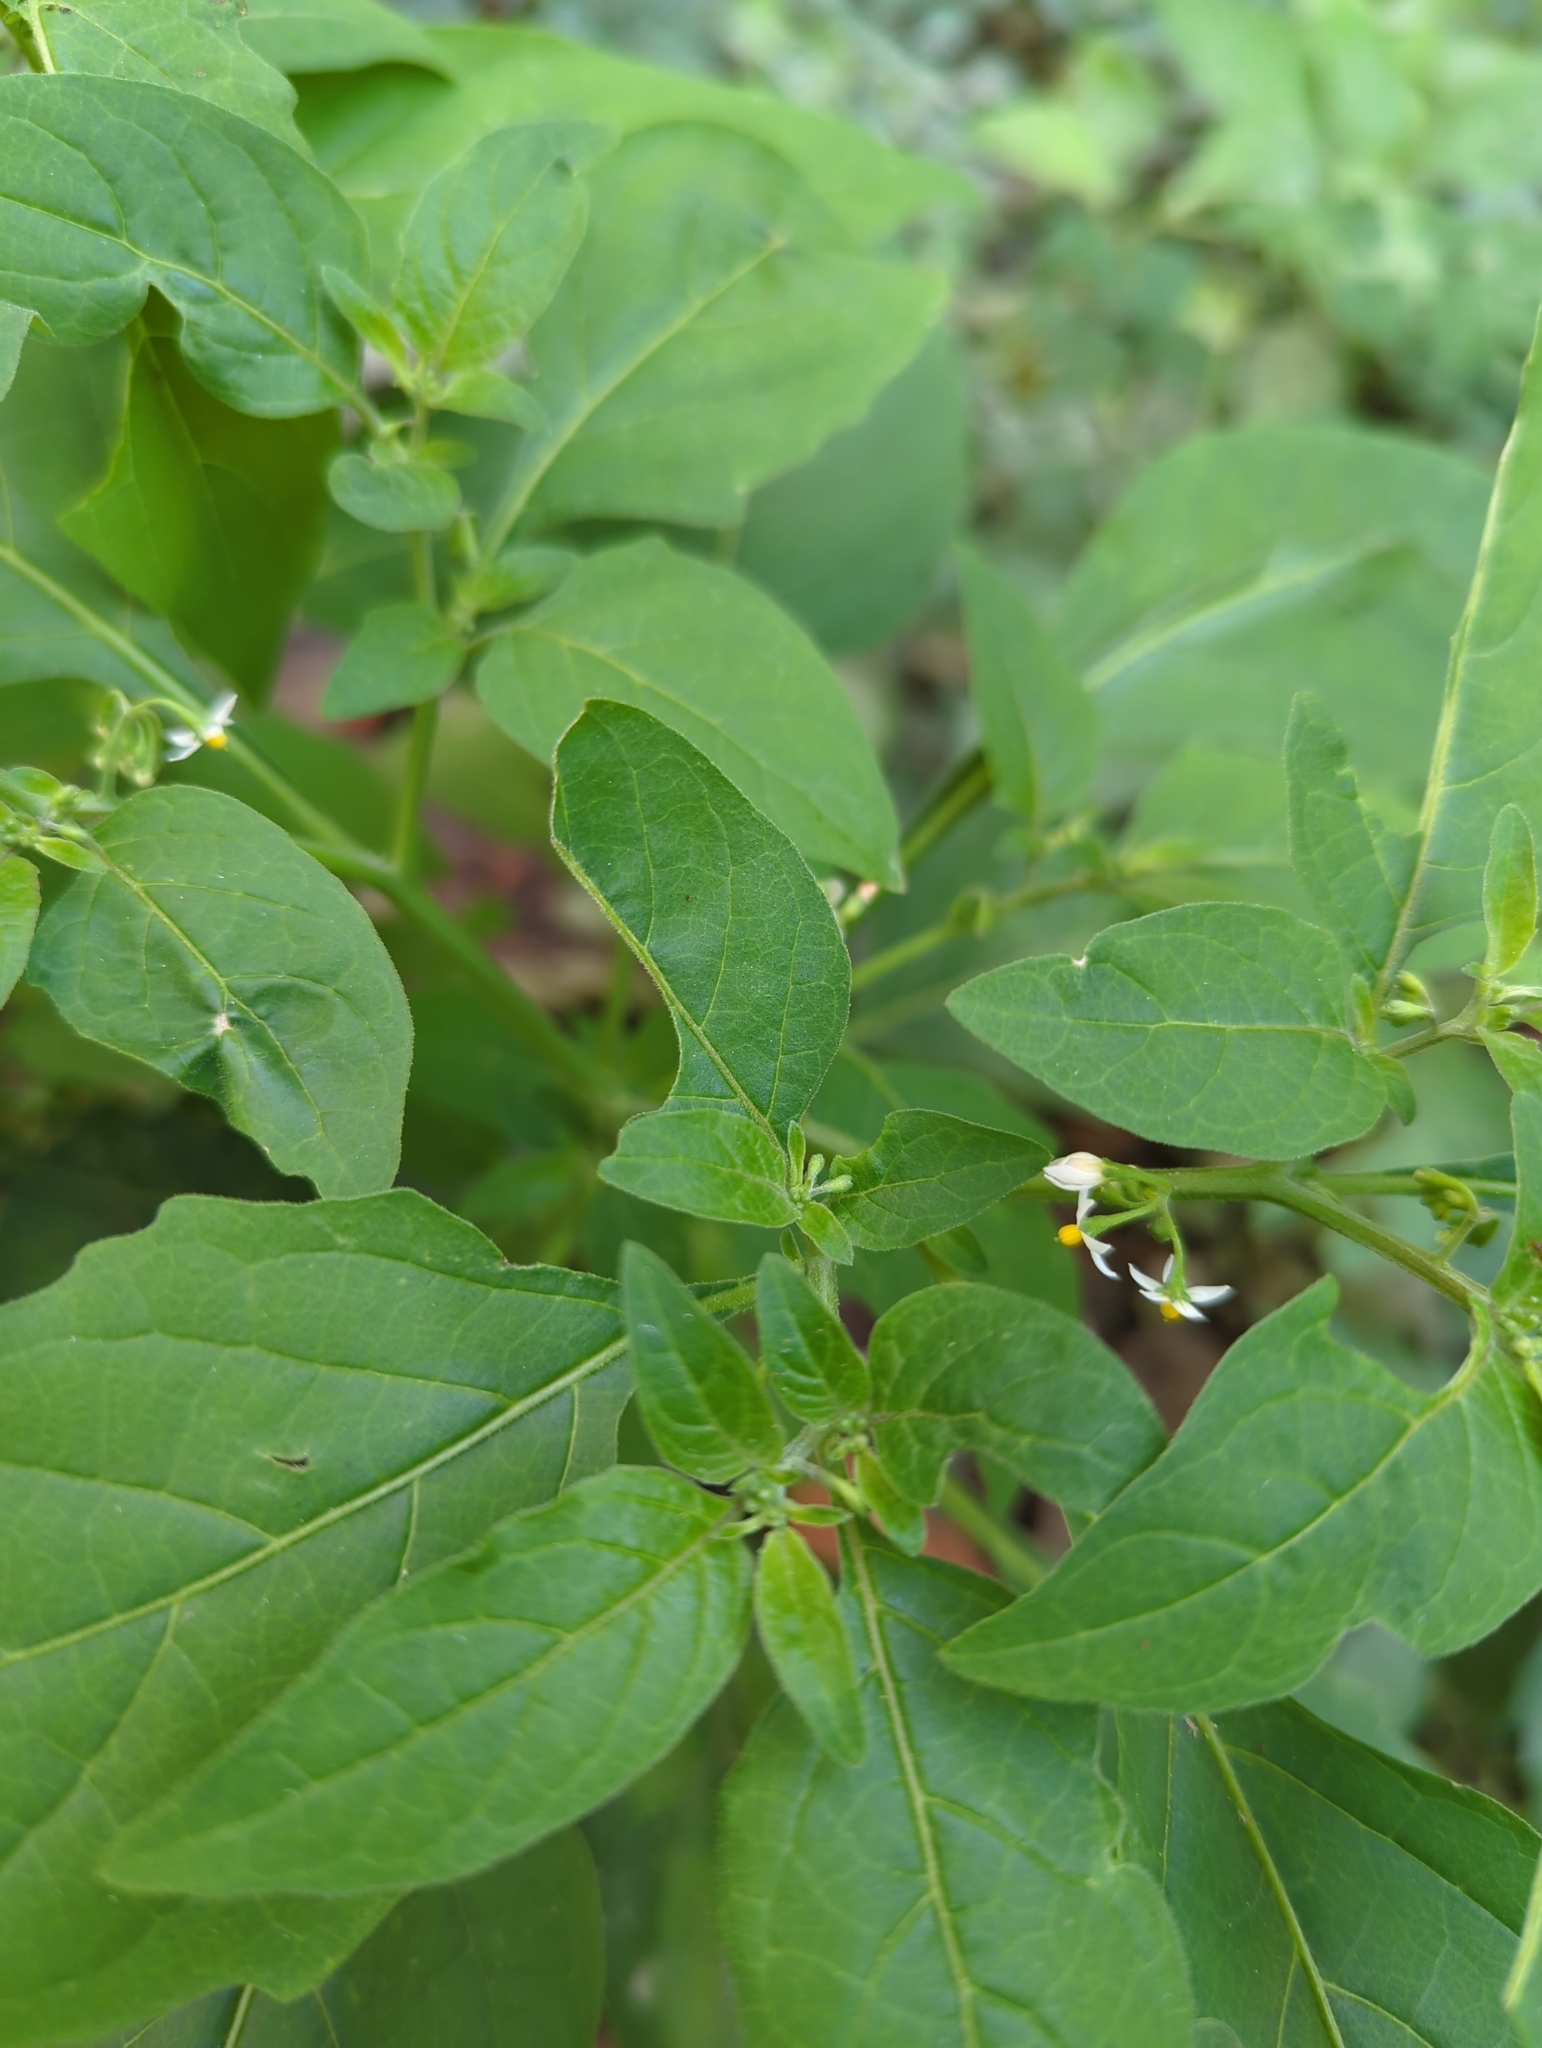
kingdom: Plantae
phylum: Tracheophyta
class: Magnoliopsida
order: Solanales
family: Solanaceae
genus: Solanum
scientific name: Solanum americanum
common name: American black nightshade
